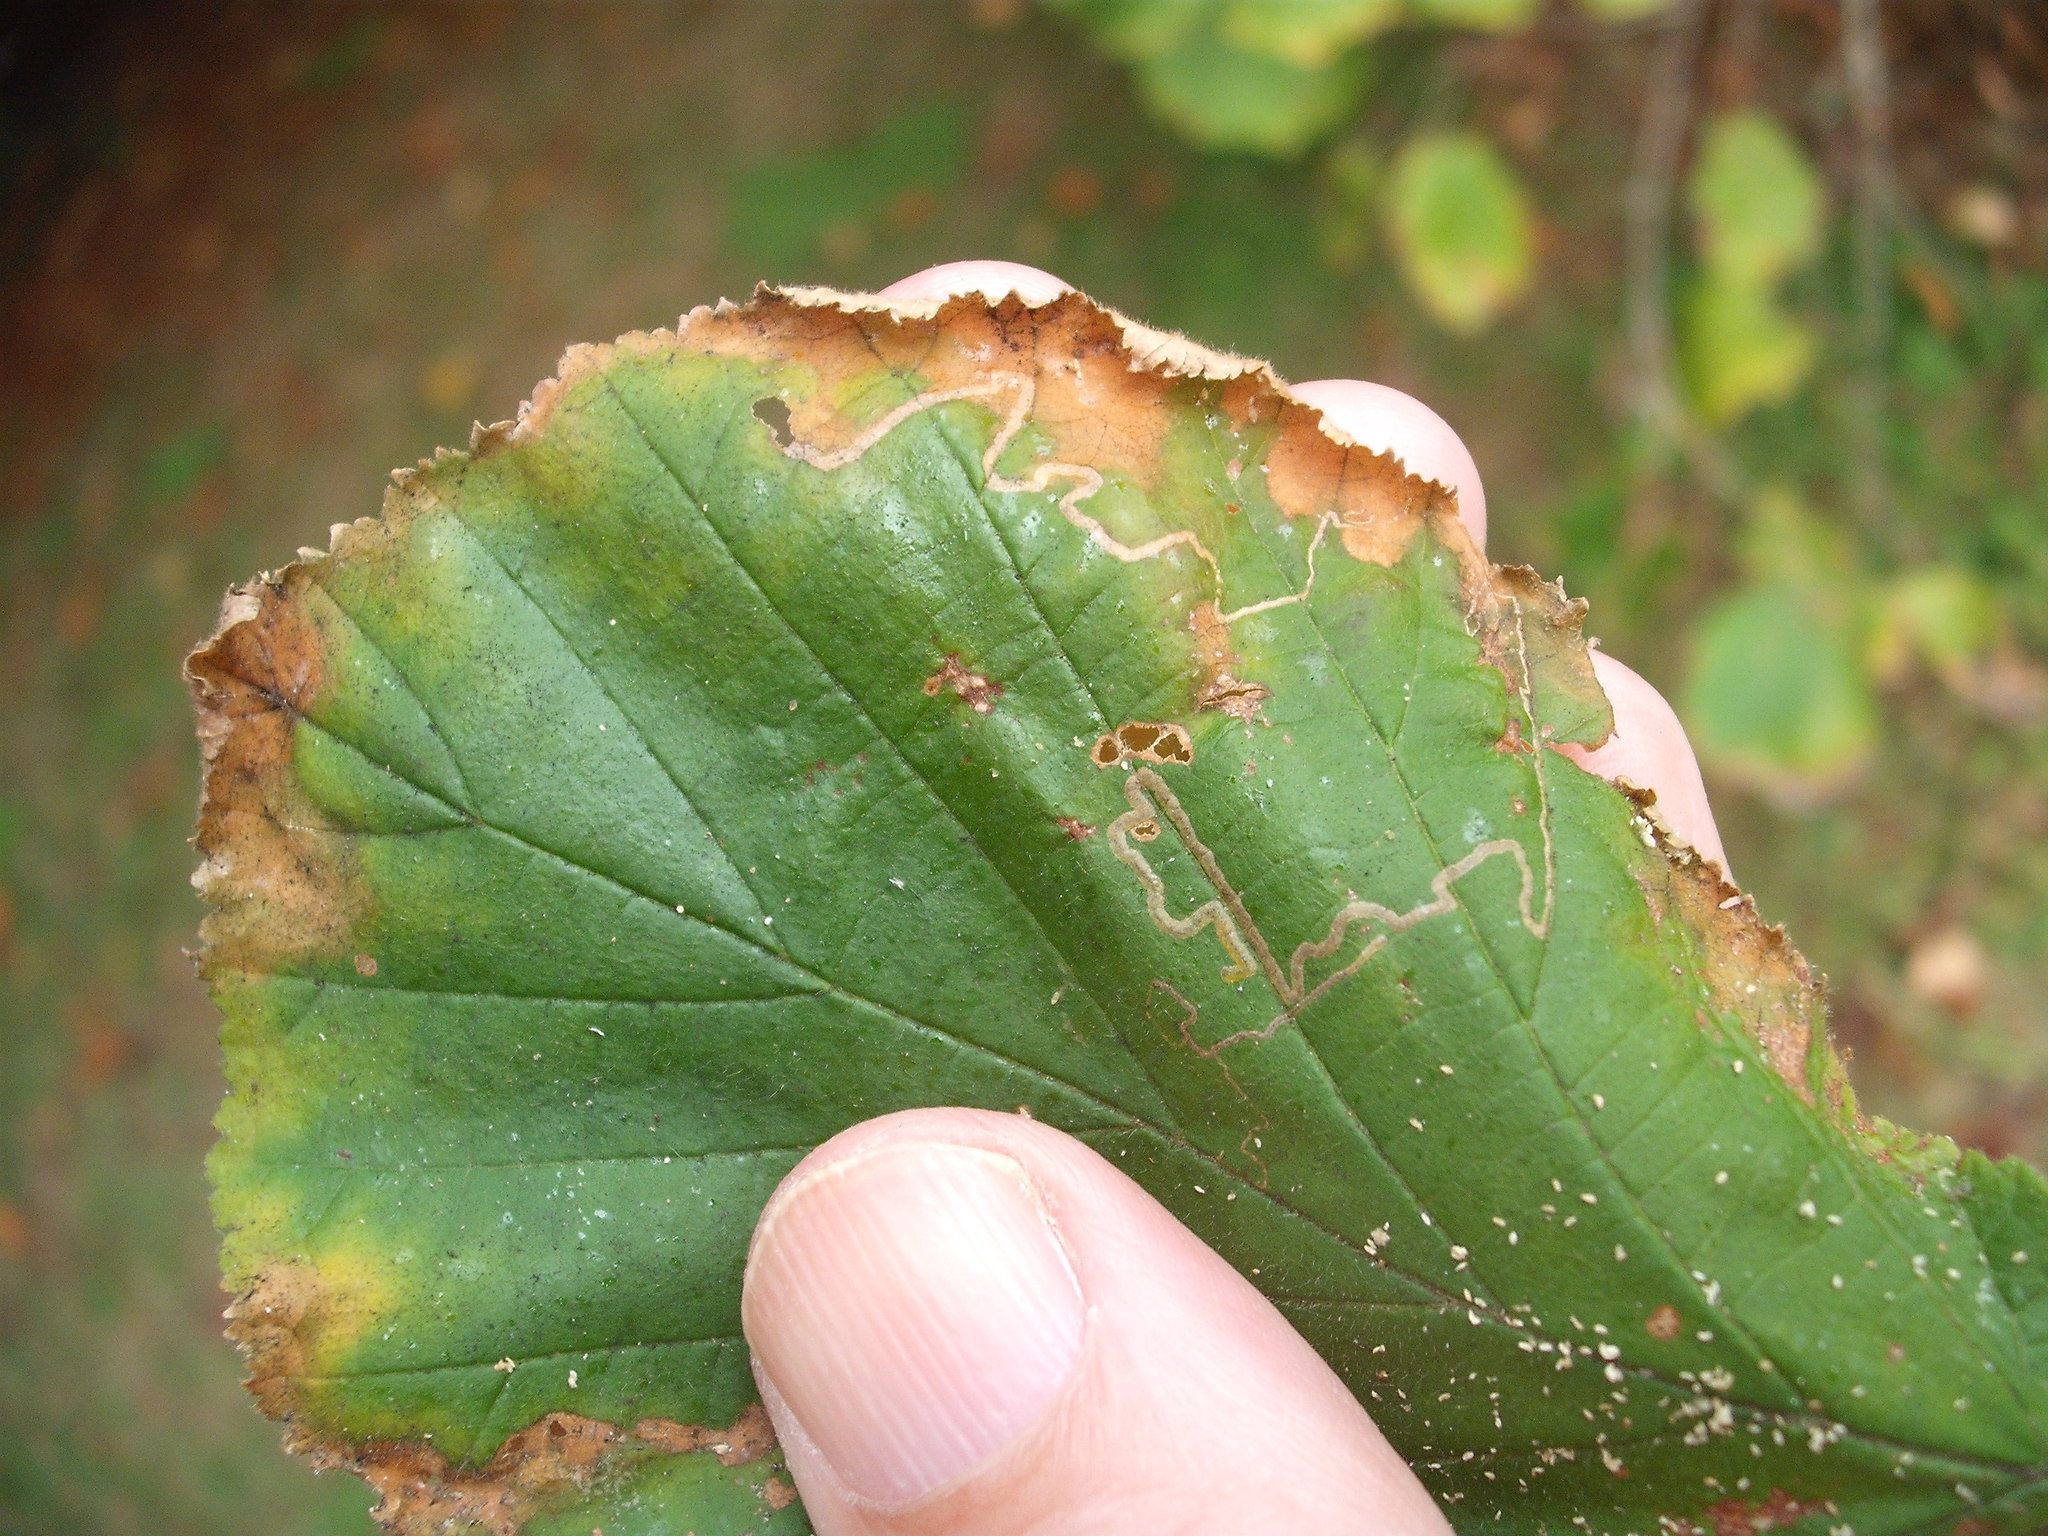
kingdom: Animalia
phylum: Arthropoda
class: Insecta
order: Lepidoptera
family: Nepticulidae
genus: Stigmella
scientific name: Stigmella microtheriella
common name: Nut-tree pigmy
